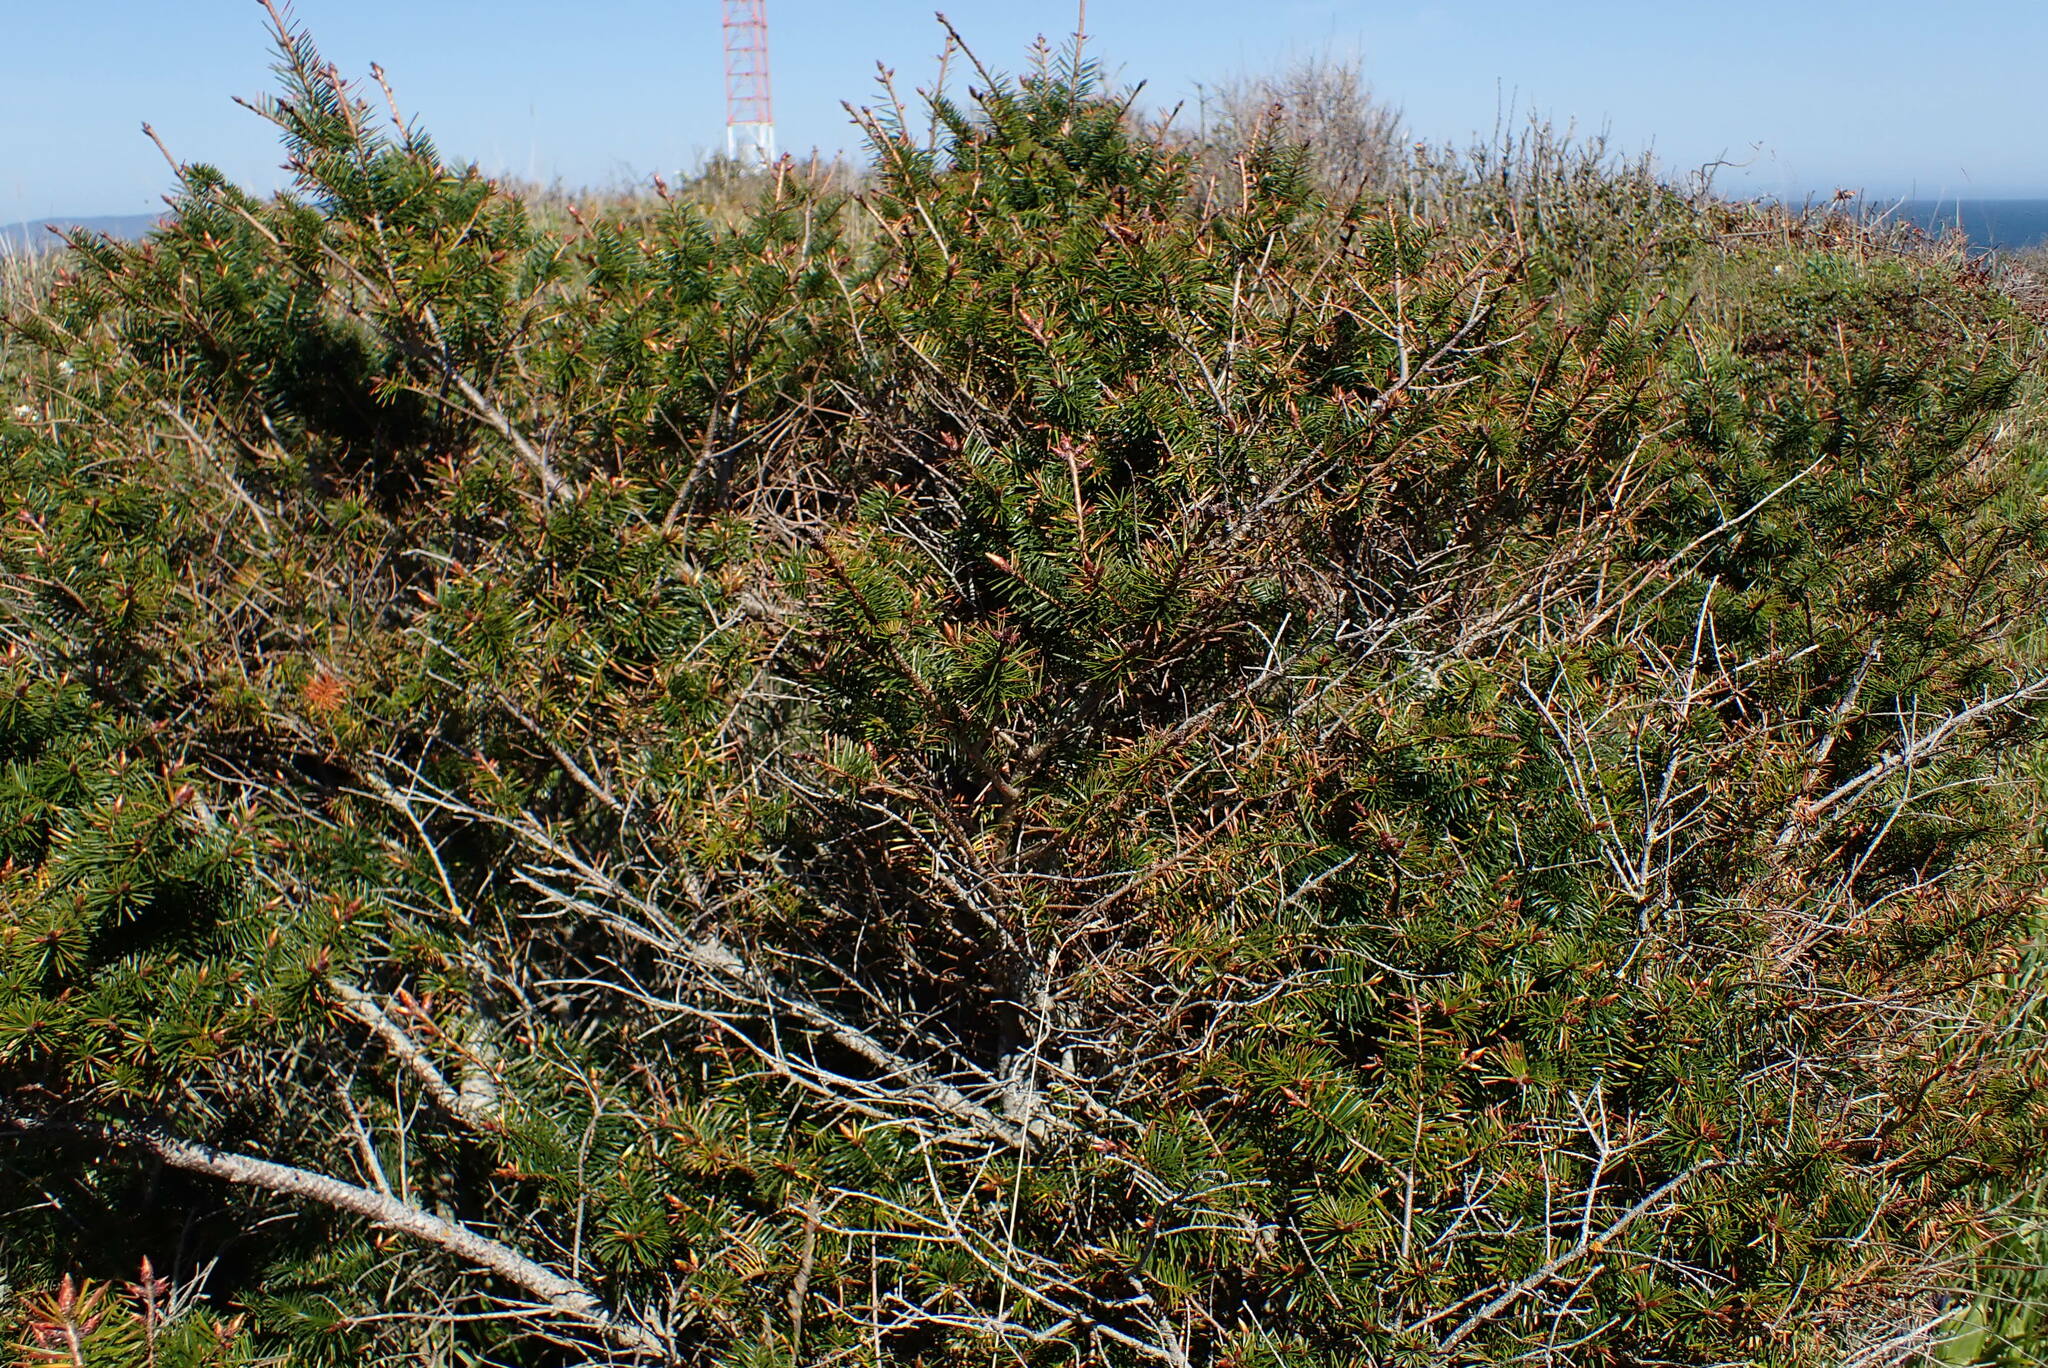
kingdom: Plantae
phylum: Tracheophyta
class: Pinopsida
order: Pinales
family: Pinaceae
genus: Pseudotsuga
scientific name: Pseudotsuga menziesii
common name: Douglas fir
